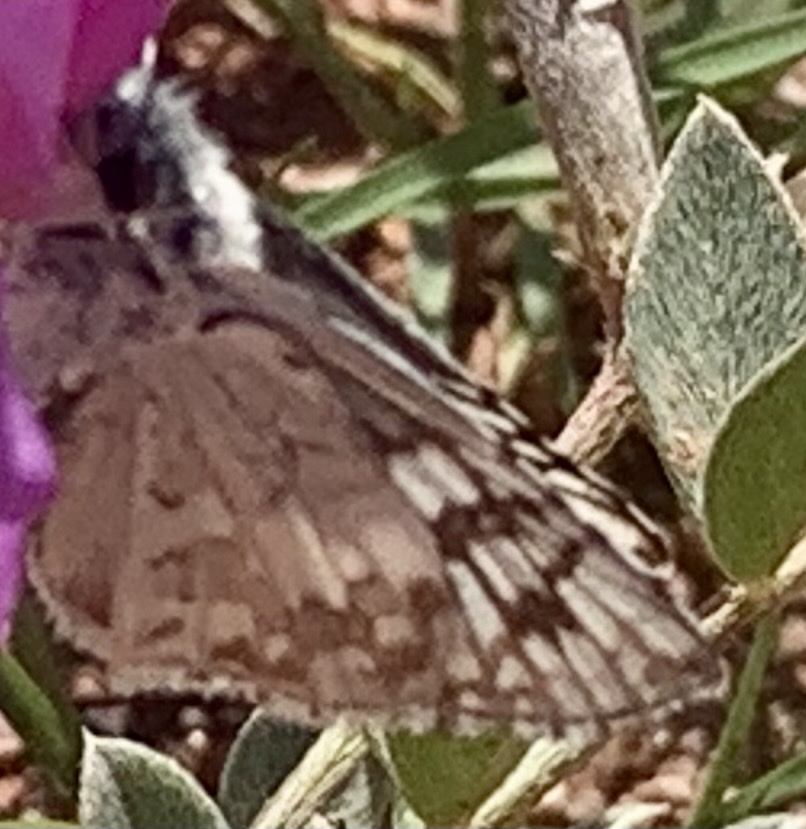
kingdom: Animalia
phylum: Arthropoda
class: Insecta
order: Lepidoptera
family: Hesperiidae
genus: Burnsius
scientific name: Burnsius
